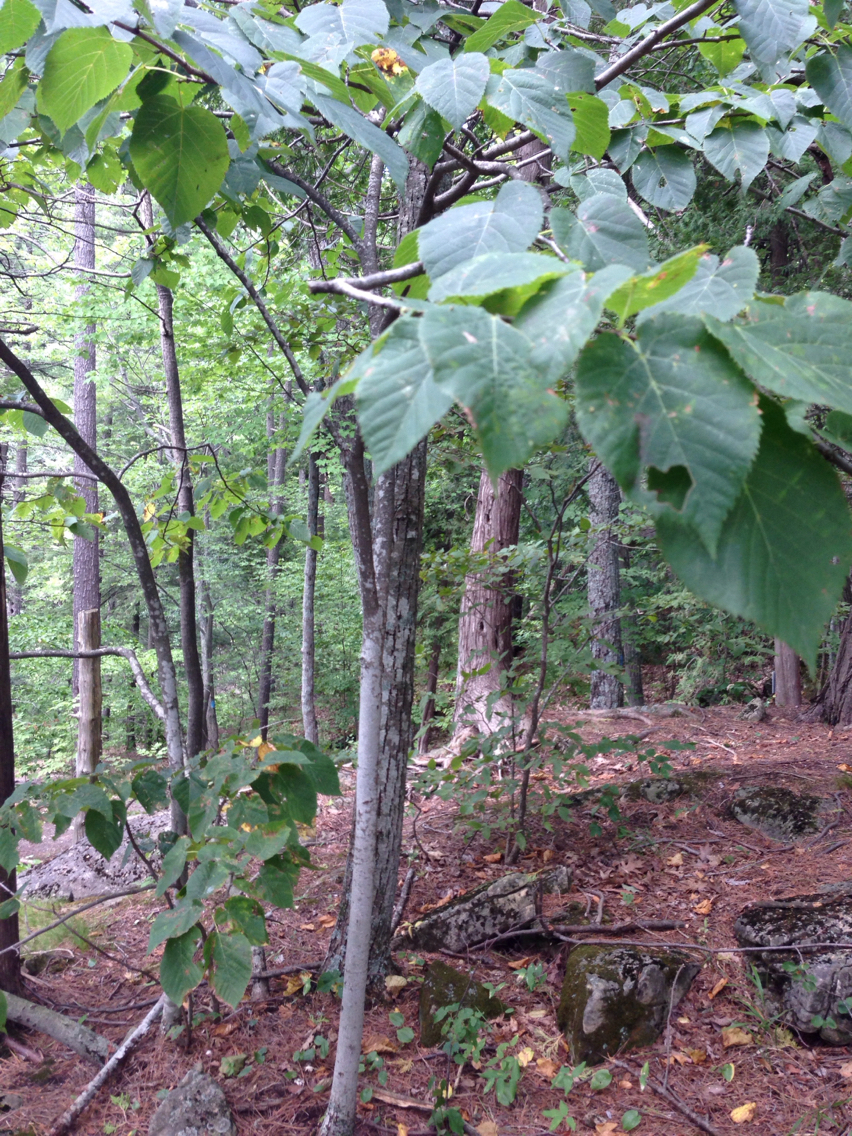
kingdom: Plantae
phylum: Tracheophyta
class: Magnoliopsida
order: Malvales
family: Malvaceae
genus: Tilia
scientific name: Tilia americana
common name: Basswood
